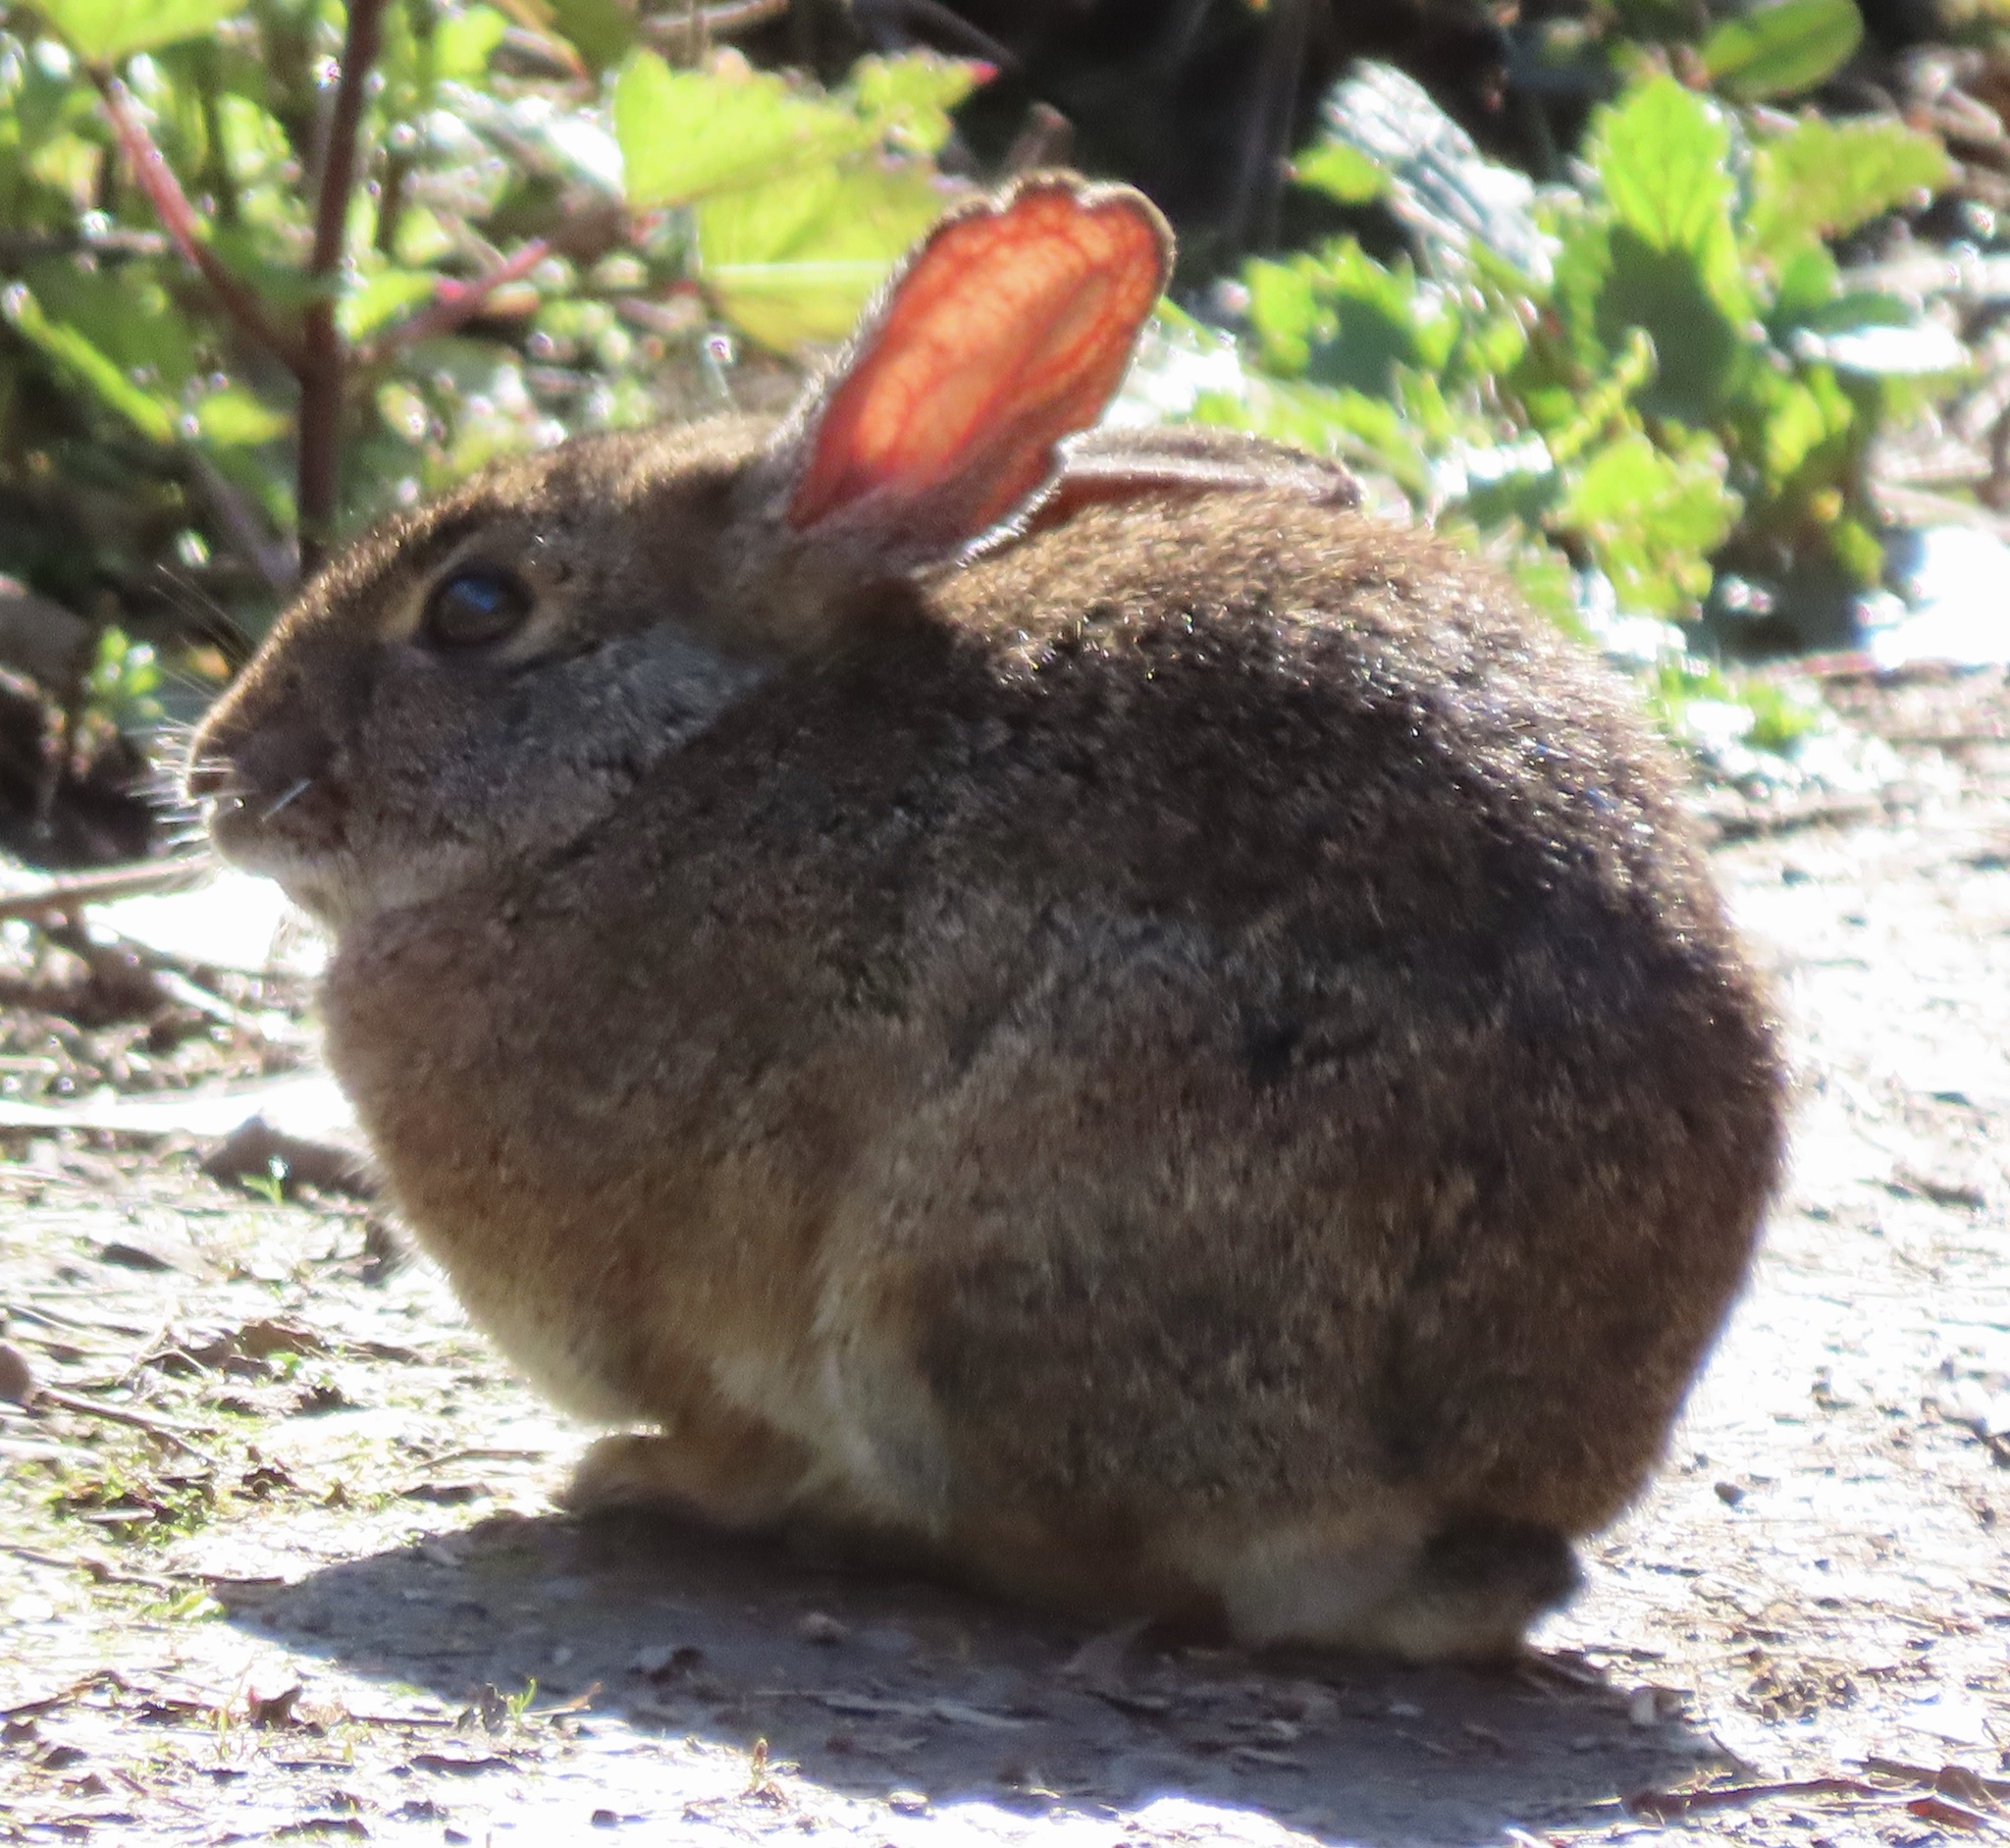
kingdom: Animalia
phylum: Chordata
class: Mammalia
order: Lagomorpha
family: Leporidae
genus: Sylvilagus
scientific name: Sylvilagus bachmani
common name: Brush rabbit
